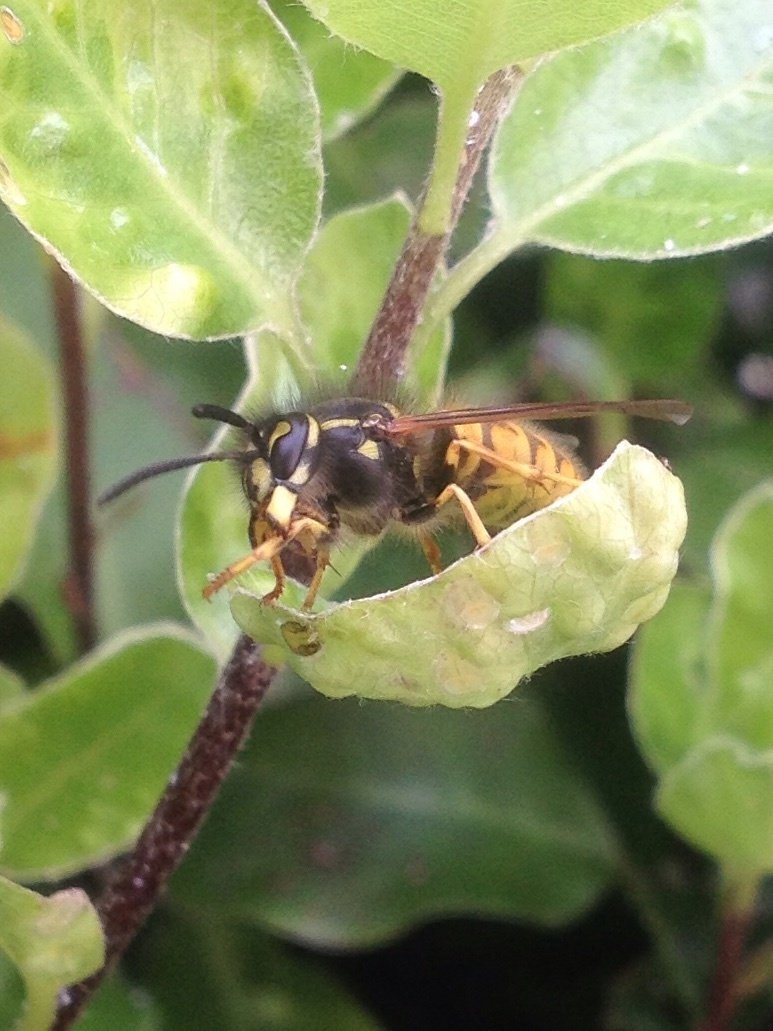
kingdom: Animalia
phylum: Arthropoda
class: Insecta
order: Hymenoptera
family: Vespidae
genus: Vespula
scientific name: Vespula vulgaris
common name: Common wasp
